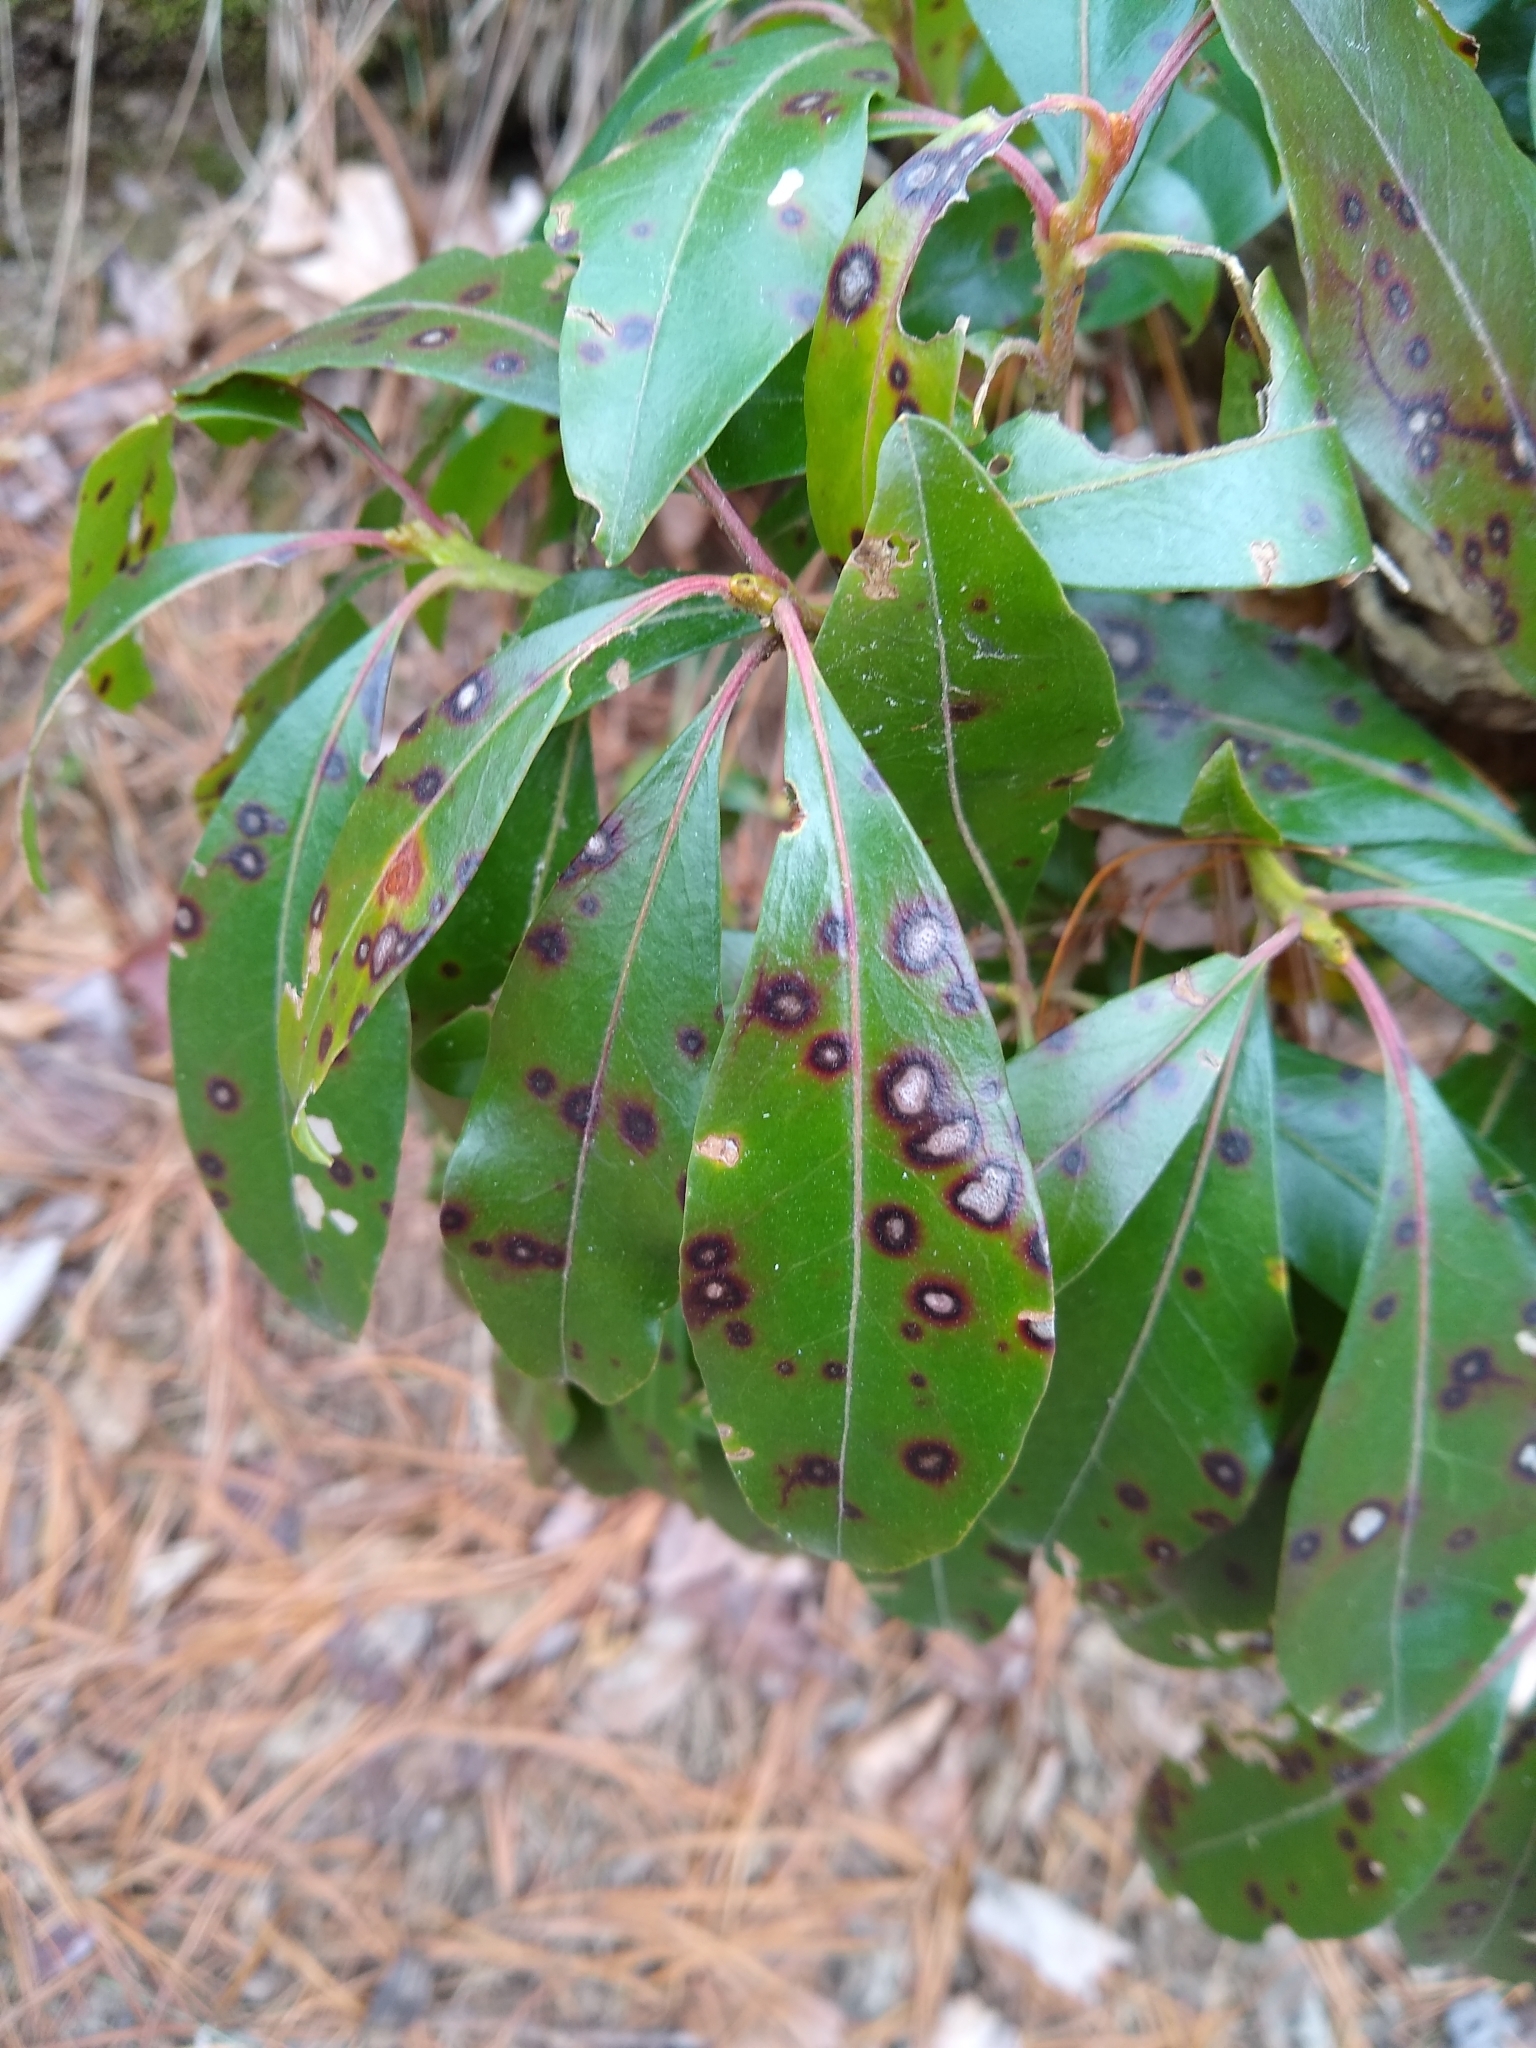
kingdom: Plantae
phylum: Tracheophyta
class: Magnoliopsida
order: Ericales
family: Ericaceae
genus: Kalmia
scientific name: Kalmia latifolia
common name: Mountain-laurel
